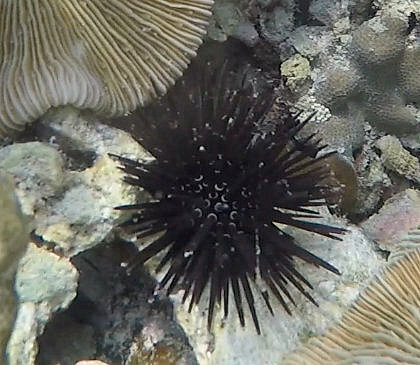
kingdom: Animalia
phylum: Echinodermata
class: Echinoidea
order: Camarodonta
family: Parasaleniidae
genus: Parasalenia
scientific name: Parasalenia gratiosa
